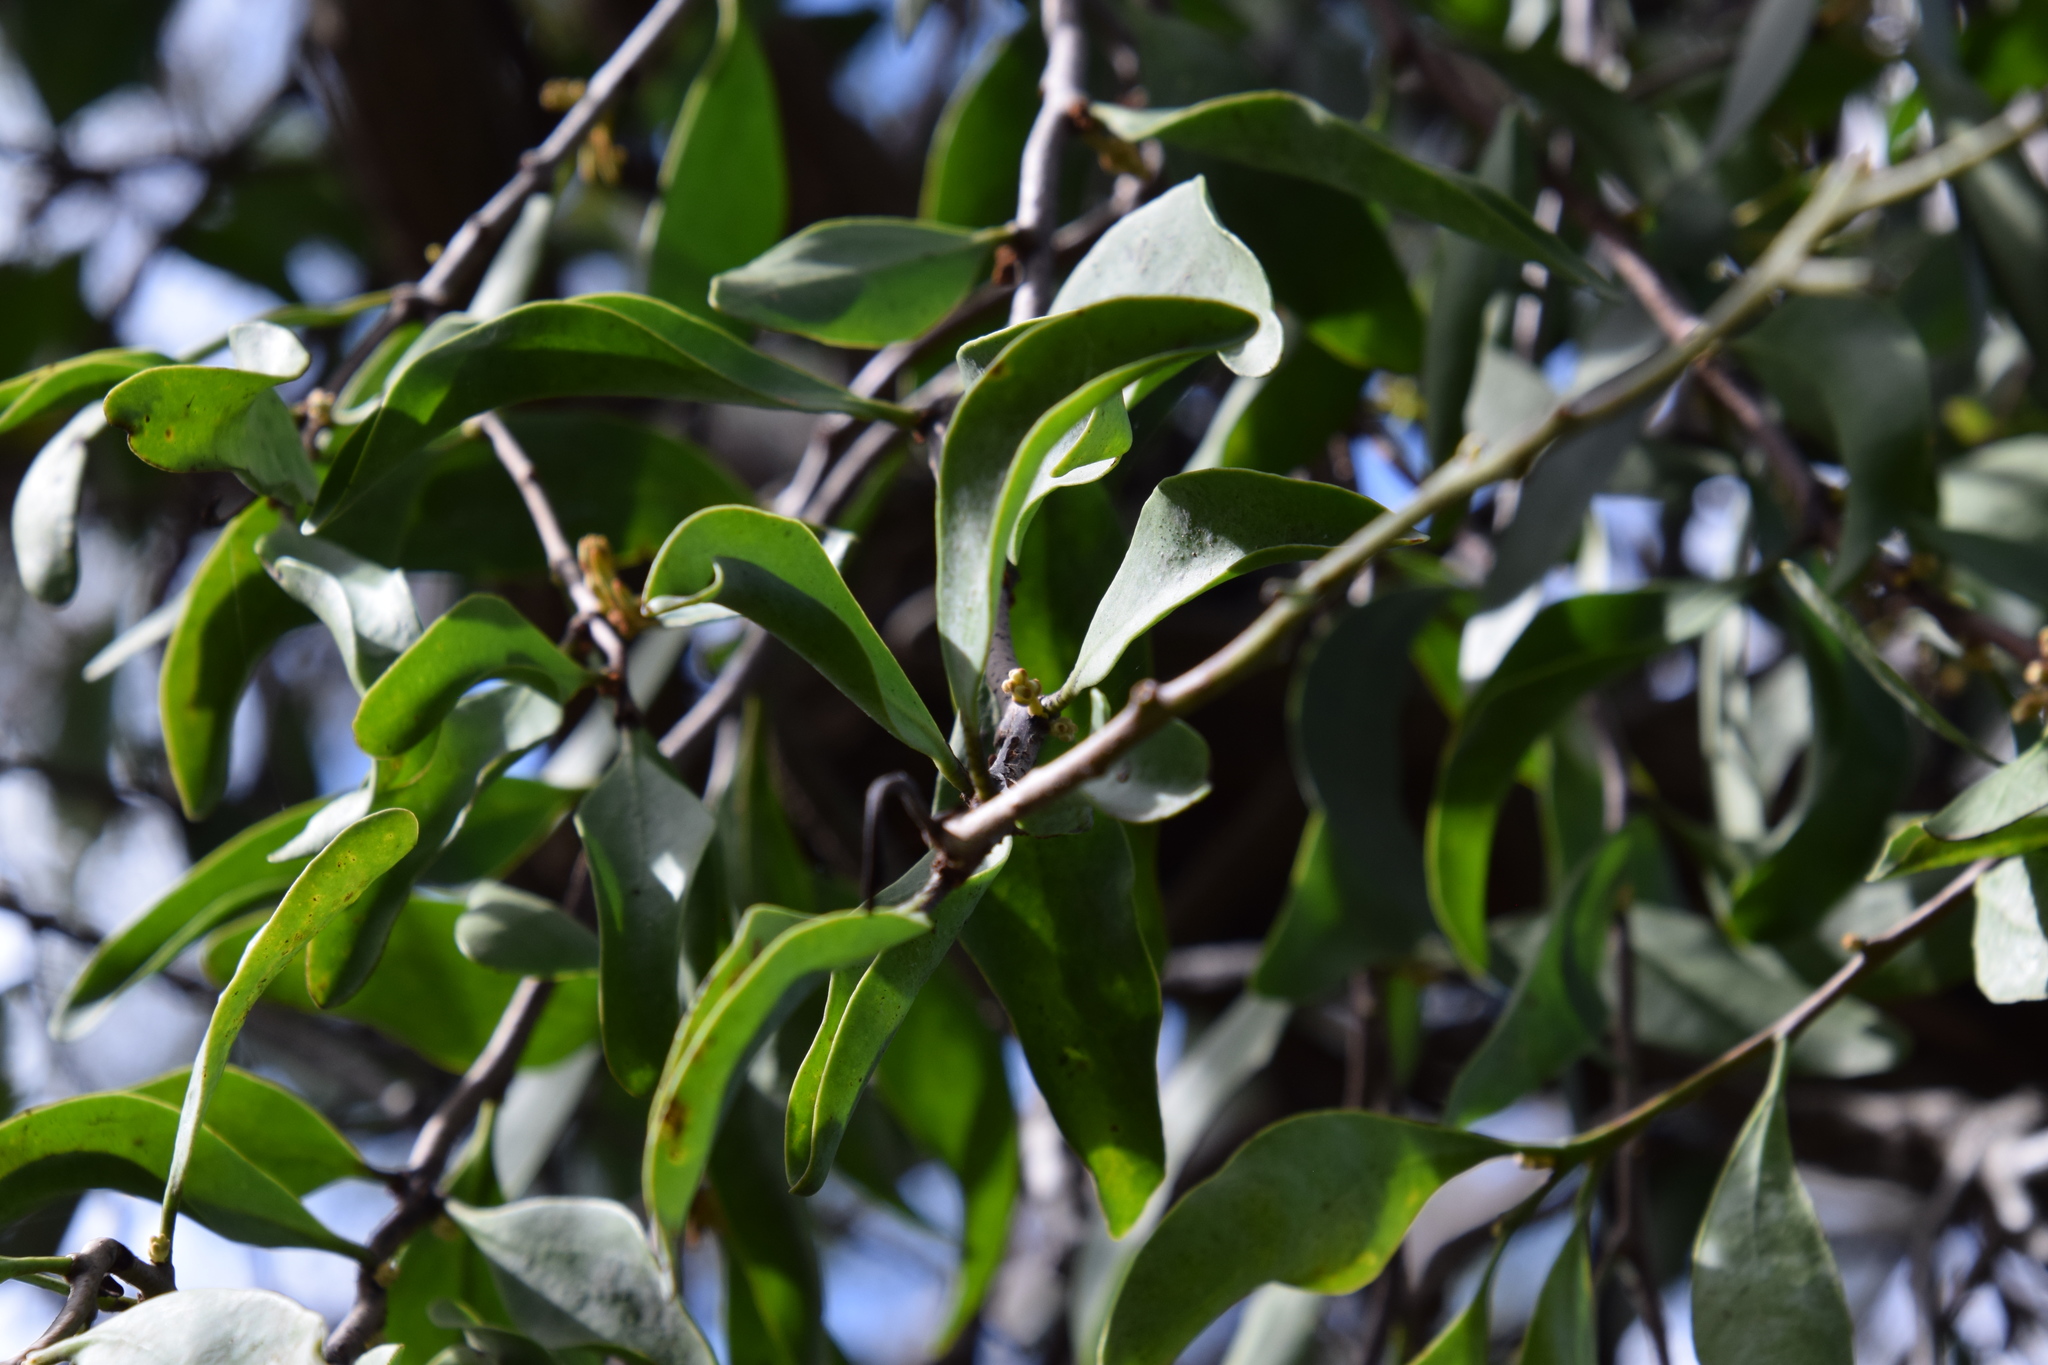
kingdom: Plantae
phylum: Tracheophyta
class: Magnoliopsida
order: Santalales
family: Loranthaceae
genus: Dendrophthoe
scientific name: Dendrophthoe vitellina
